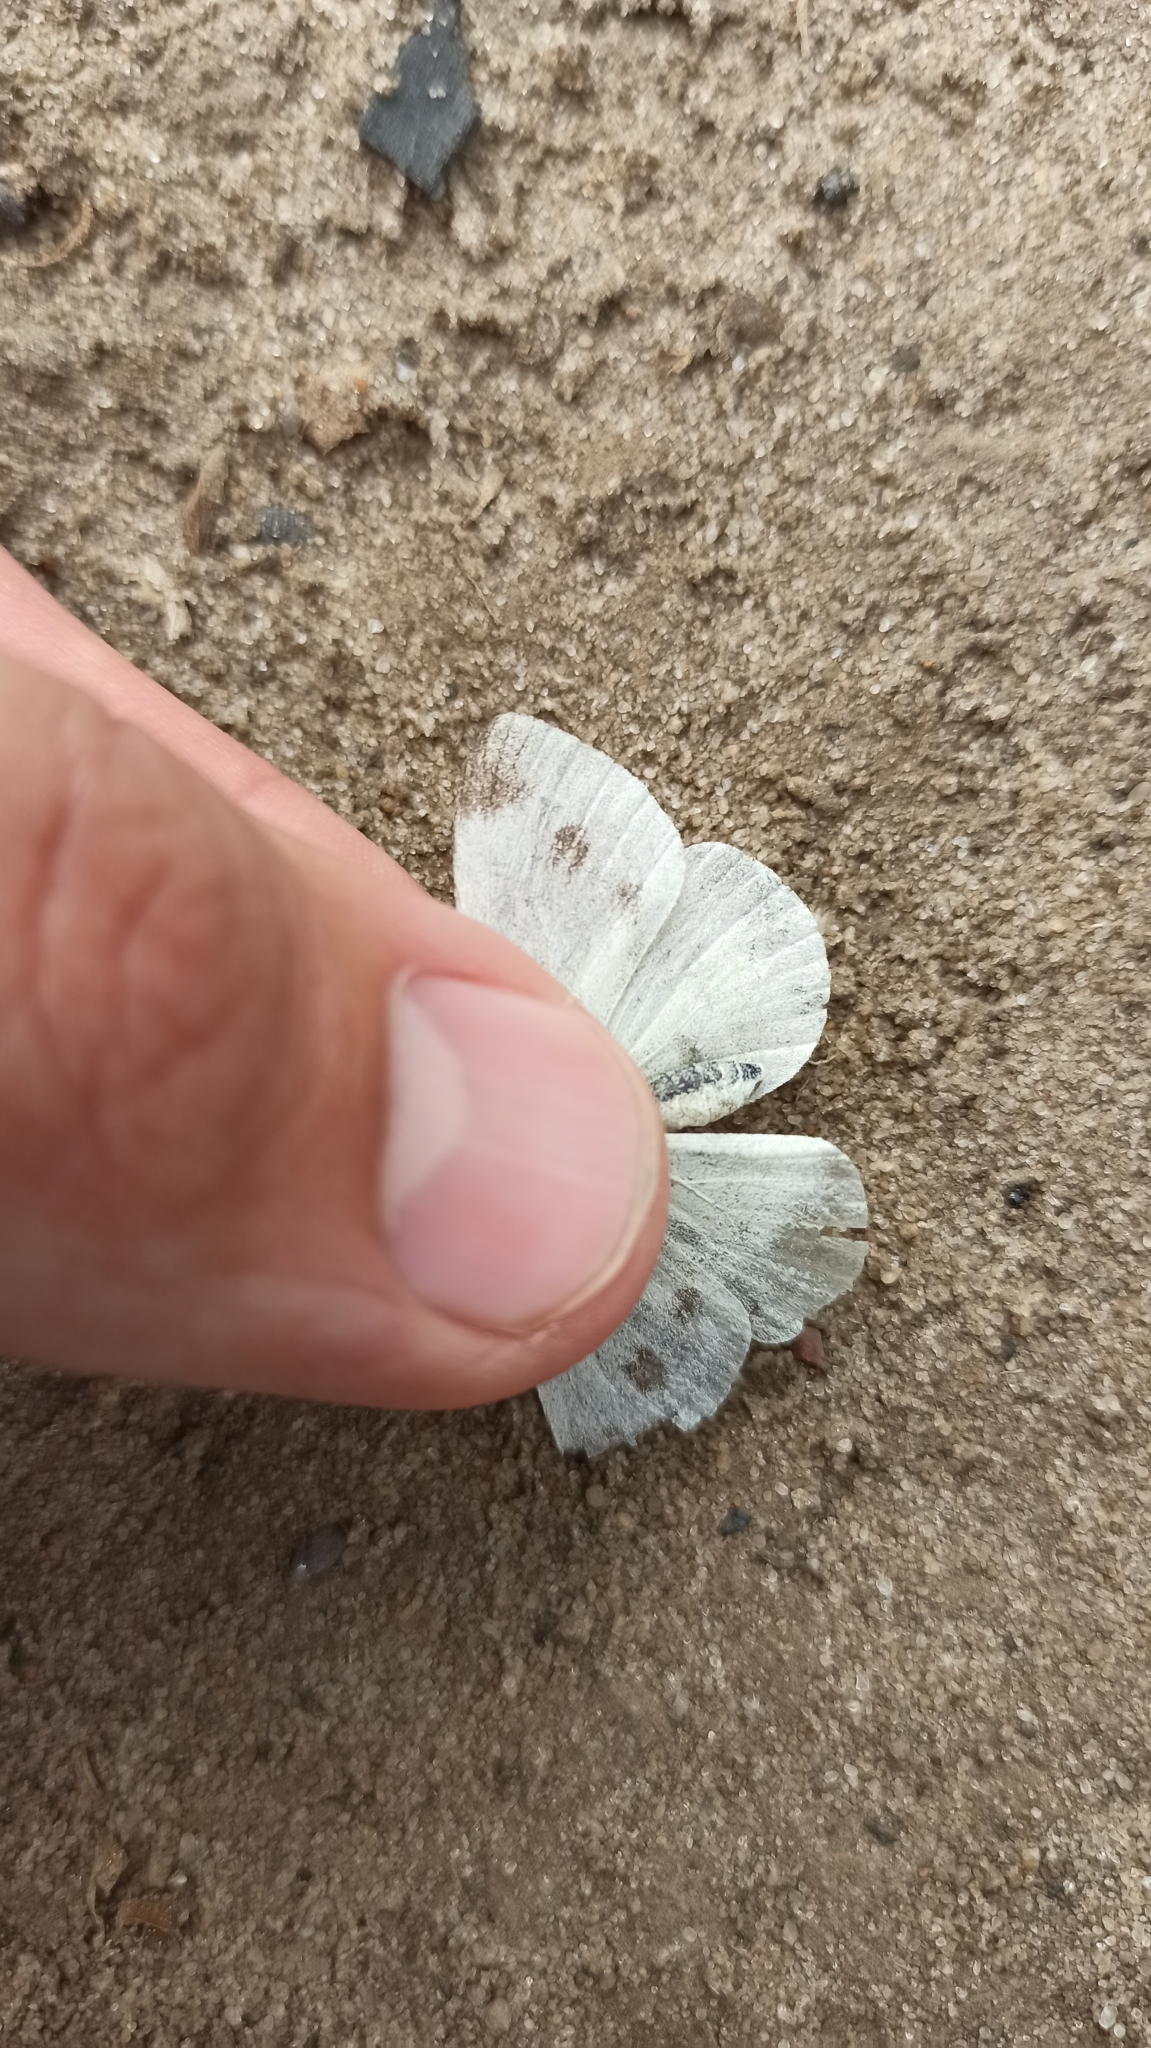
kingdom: Animalia
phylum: Arthropoda
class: Insecta
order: Lepidoptera
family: Pieridae
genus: Pieris
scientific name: Pieris rapae
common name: Small white
